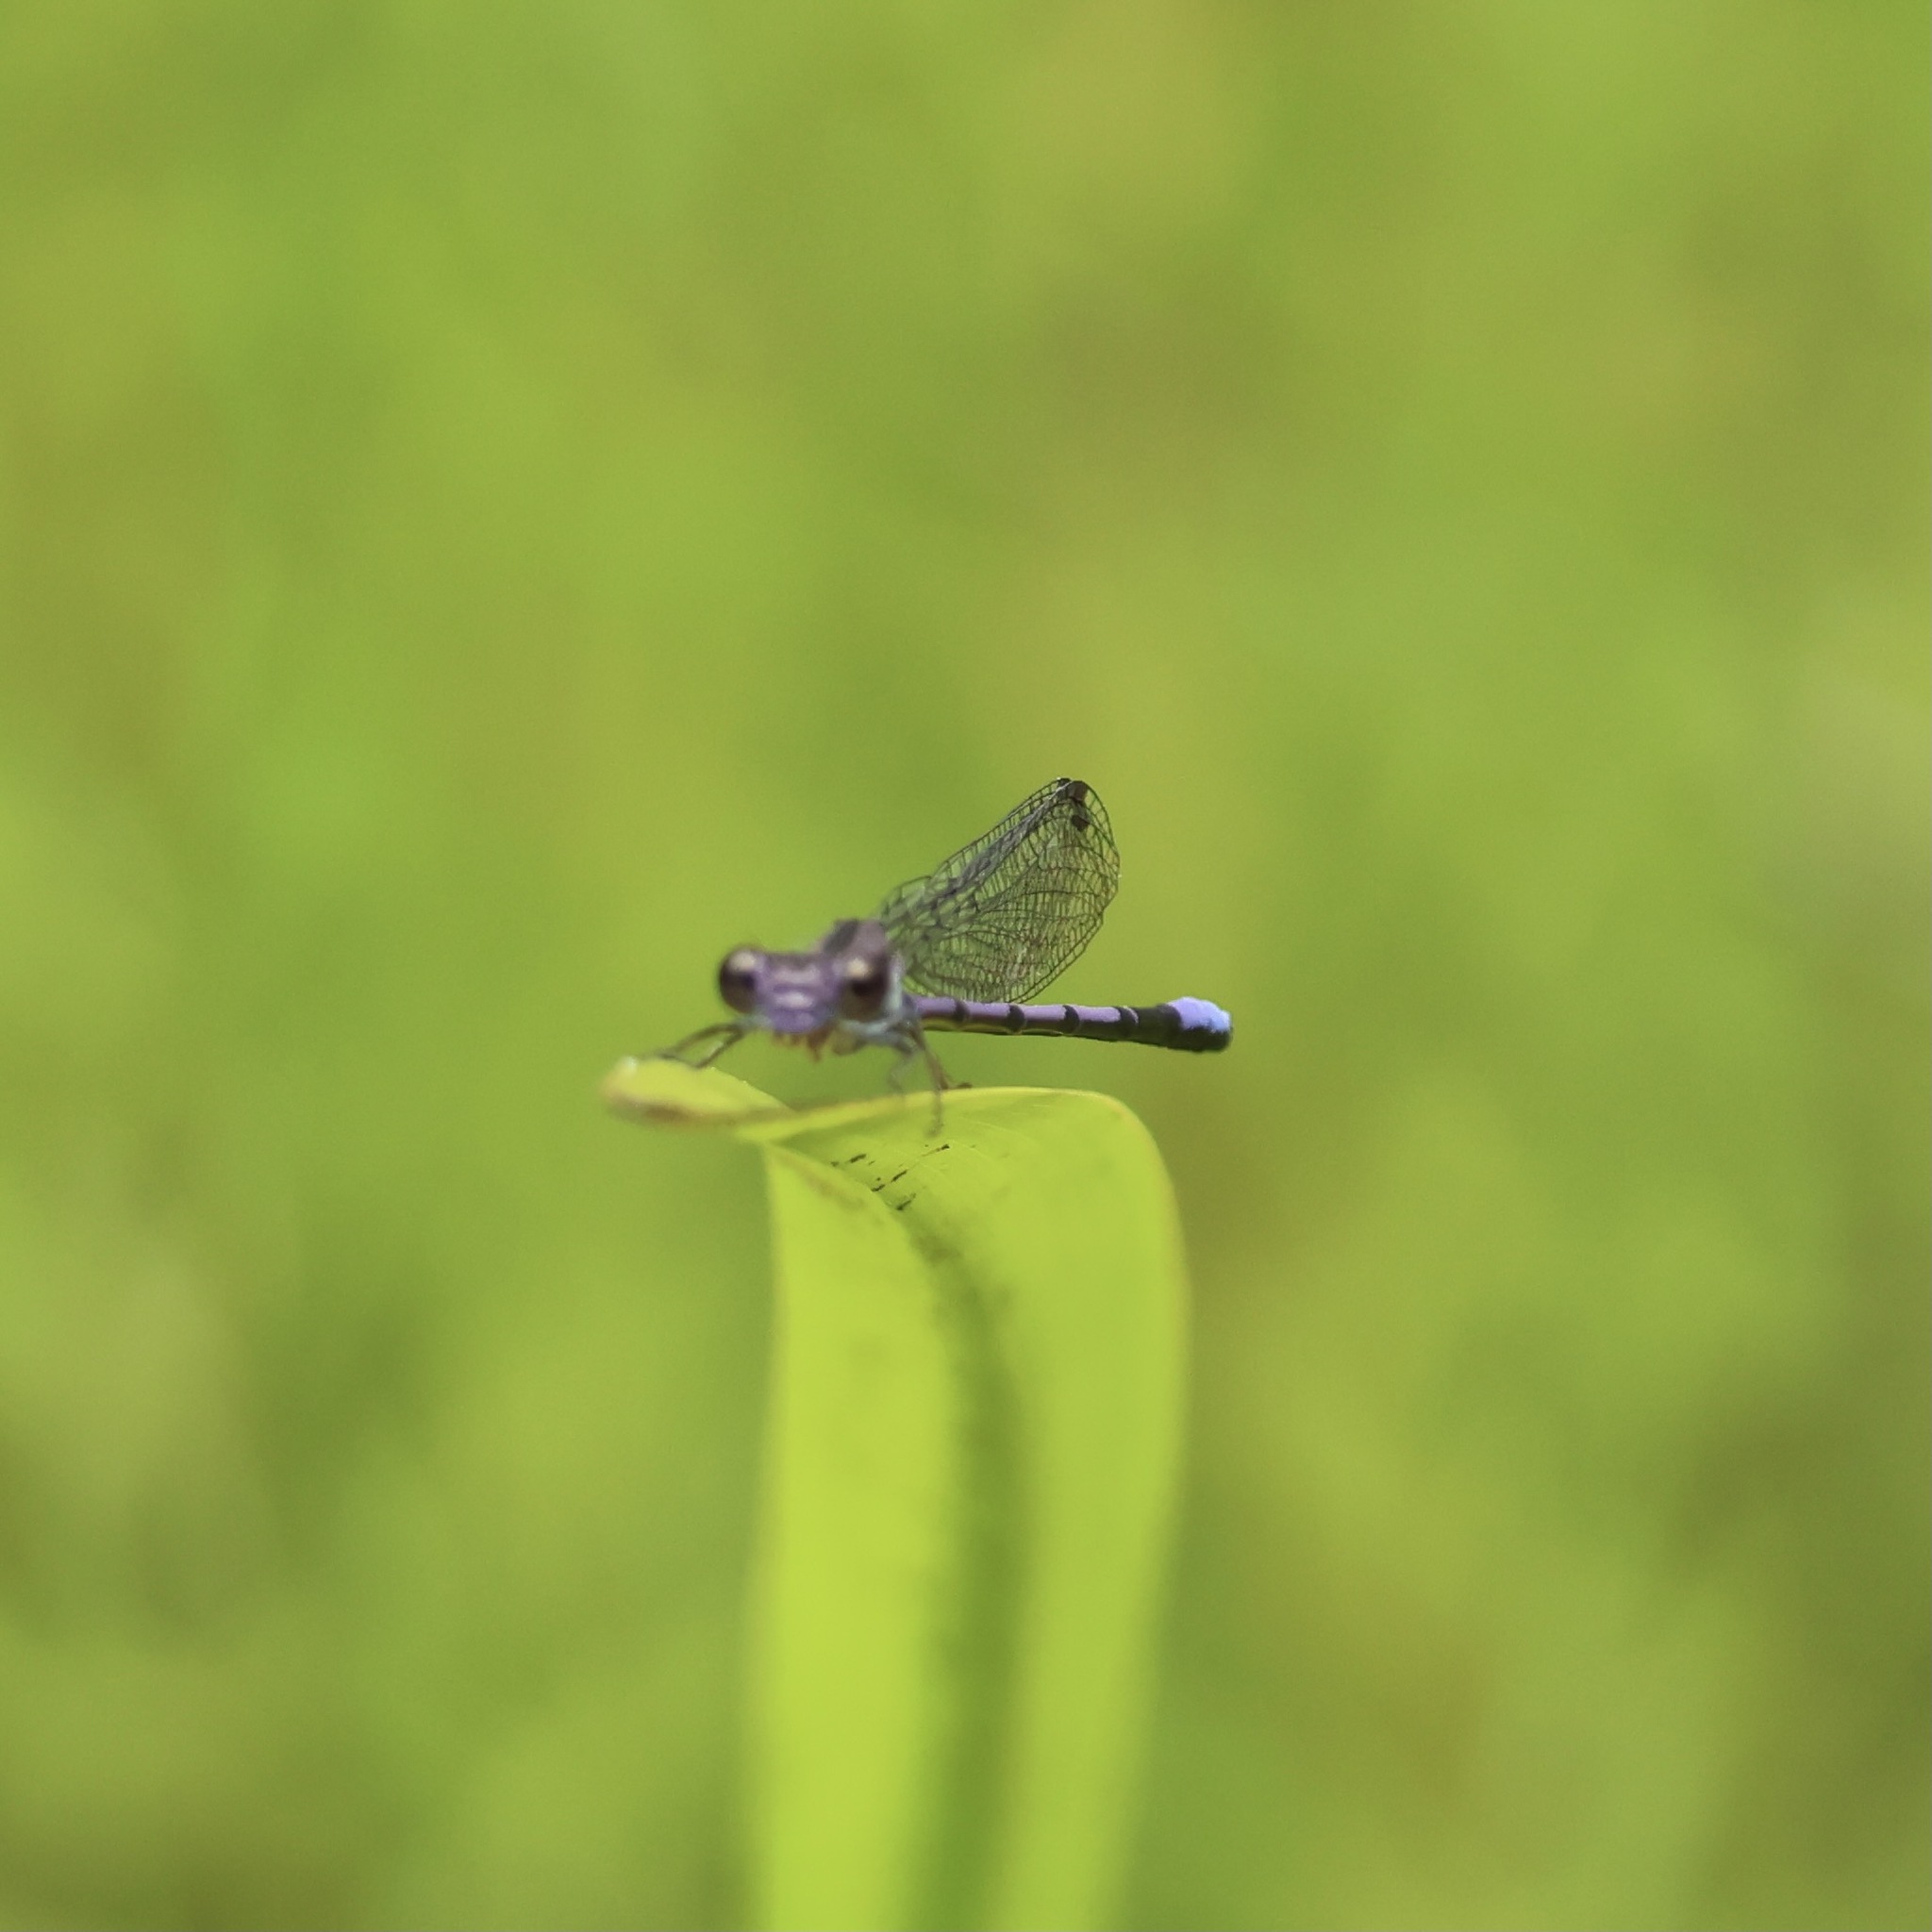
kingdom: Animalia
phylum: Arthropoda
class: Insecta
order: Odonata
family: Coenagrionidae
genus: Argia
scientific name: Argia fumipennis
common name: Variable dancer
